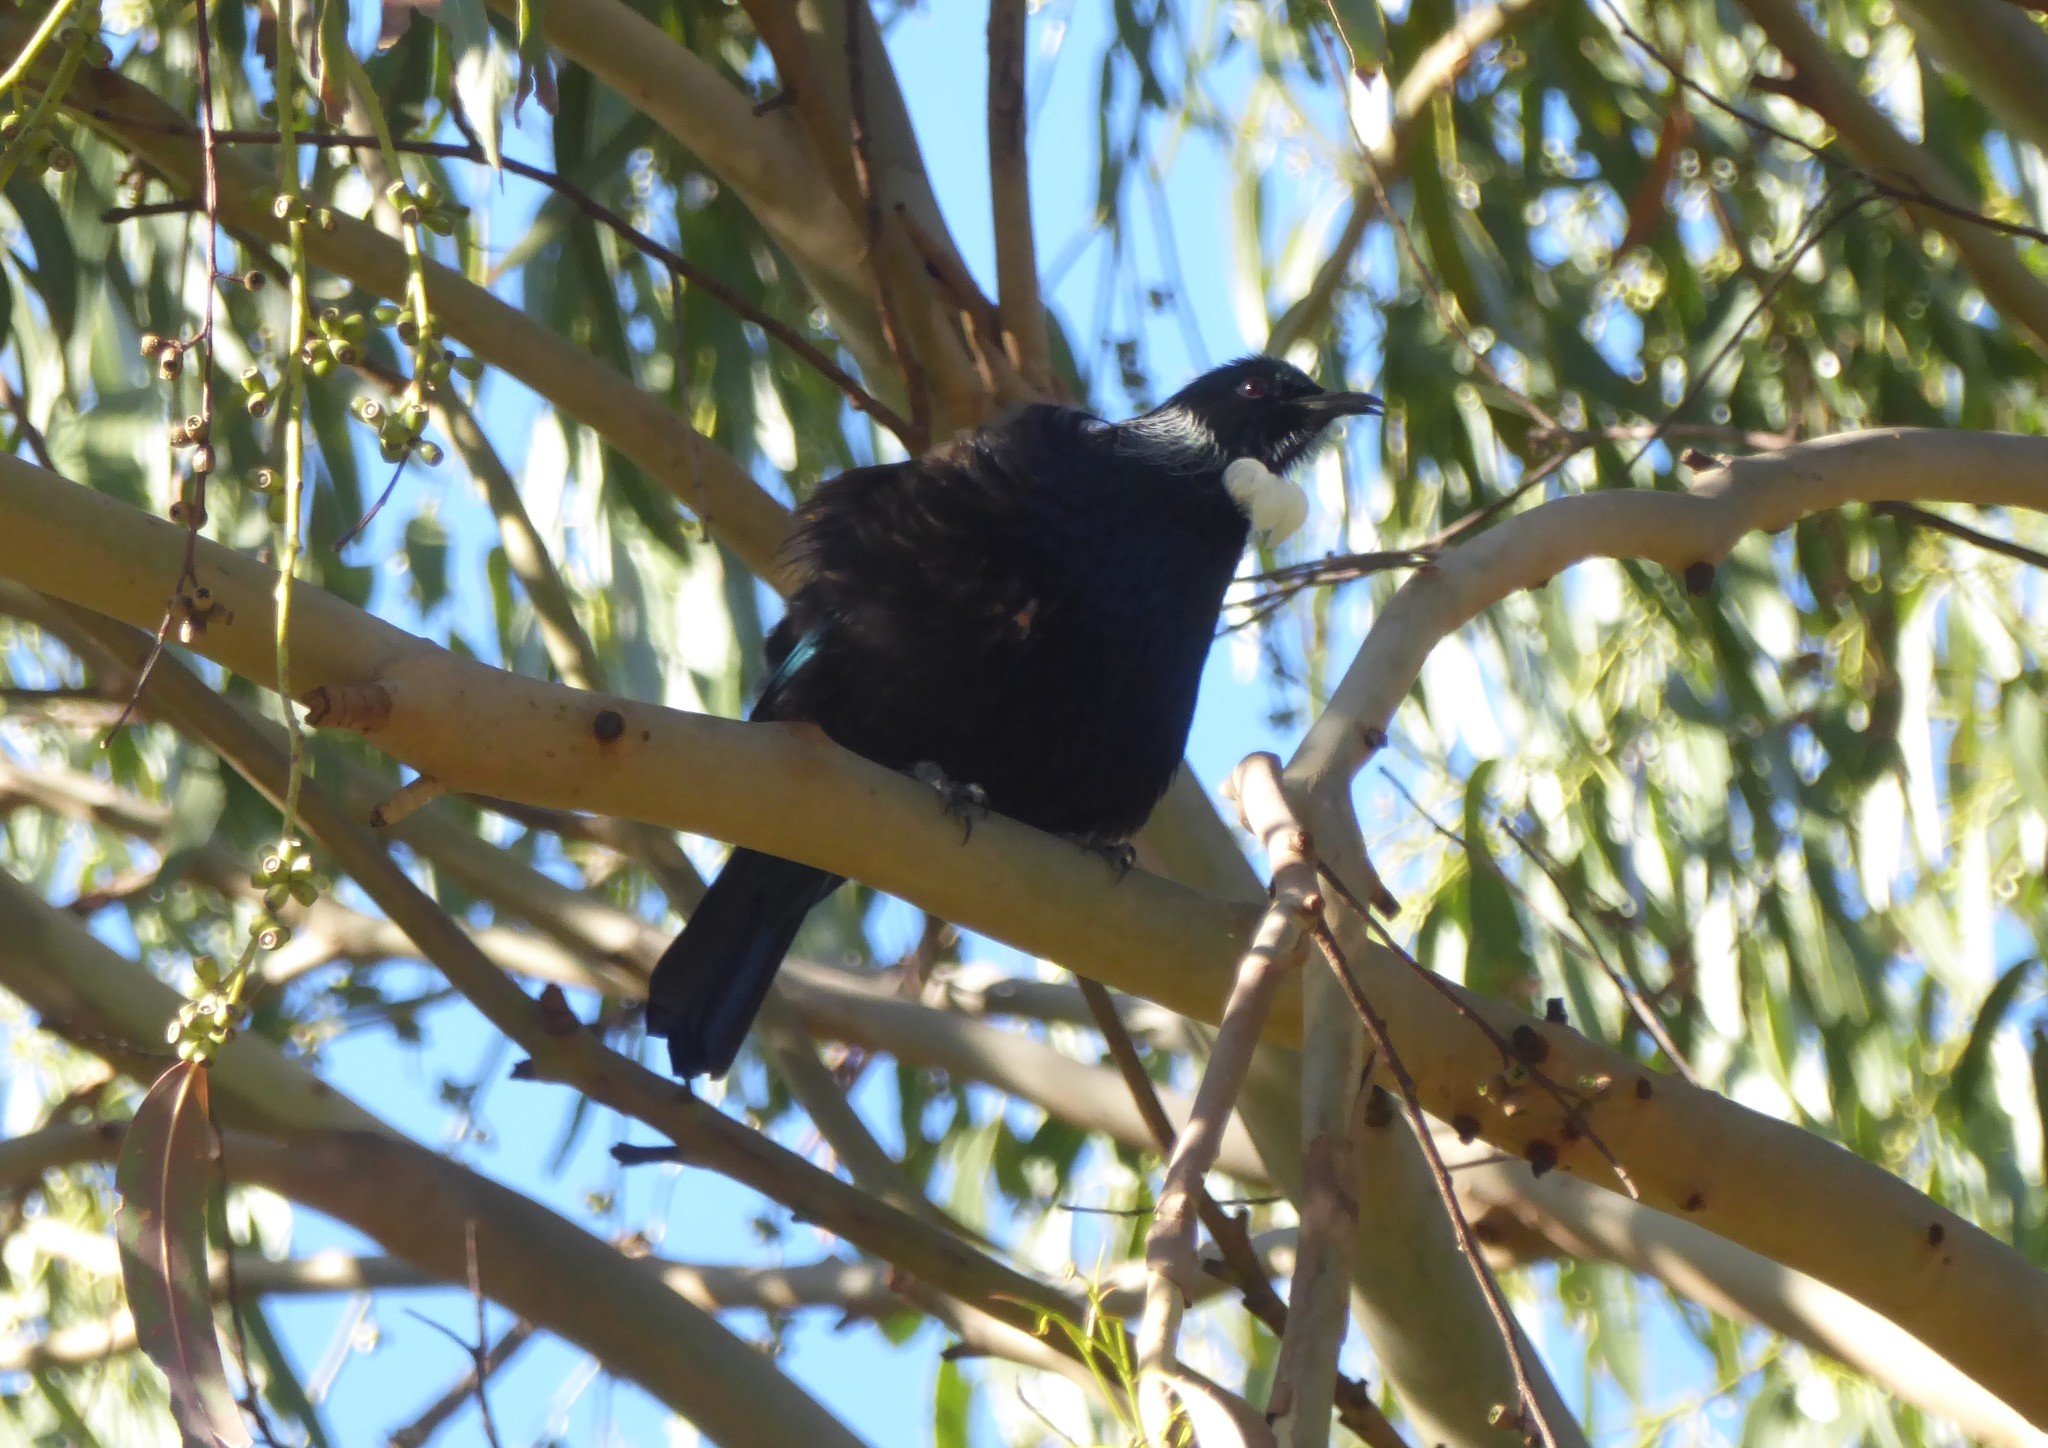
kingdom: Animalia
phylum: Chordata
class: Aves
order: Passeriformes
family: Meliphagidae
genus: Prosthemadera
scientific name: Prosthemadera novaeseelandiae
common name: Tui
